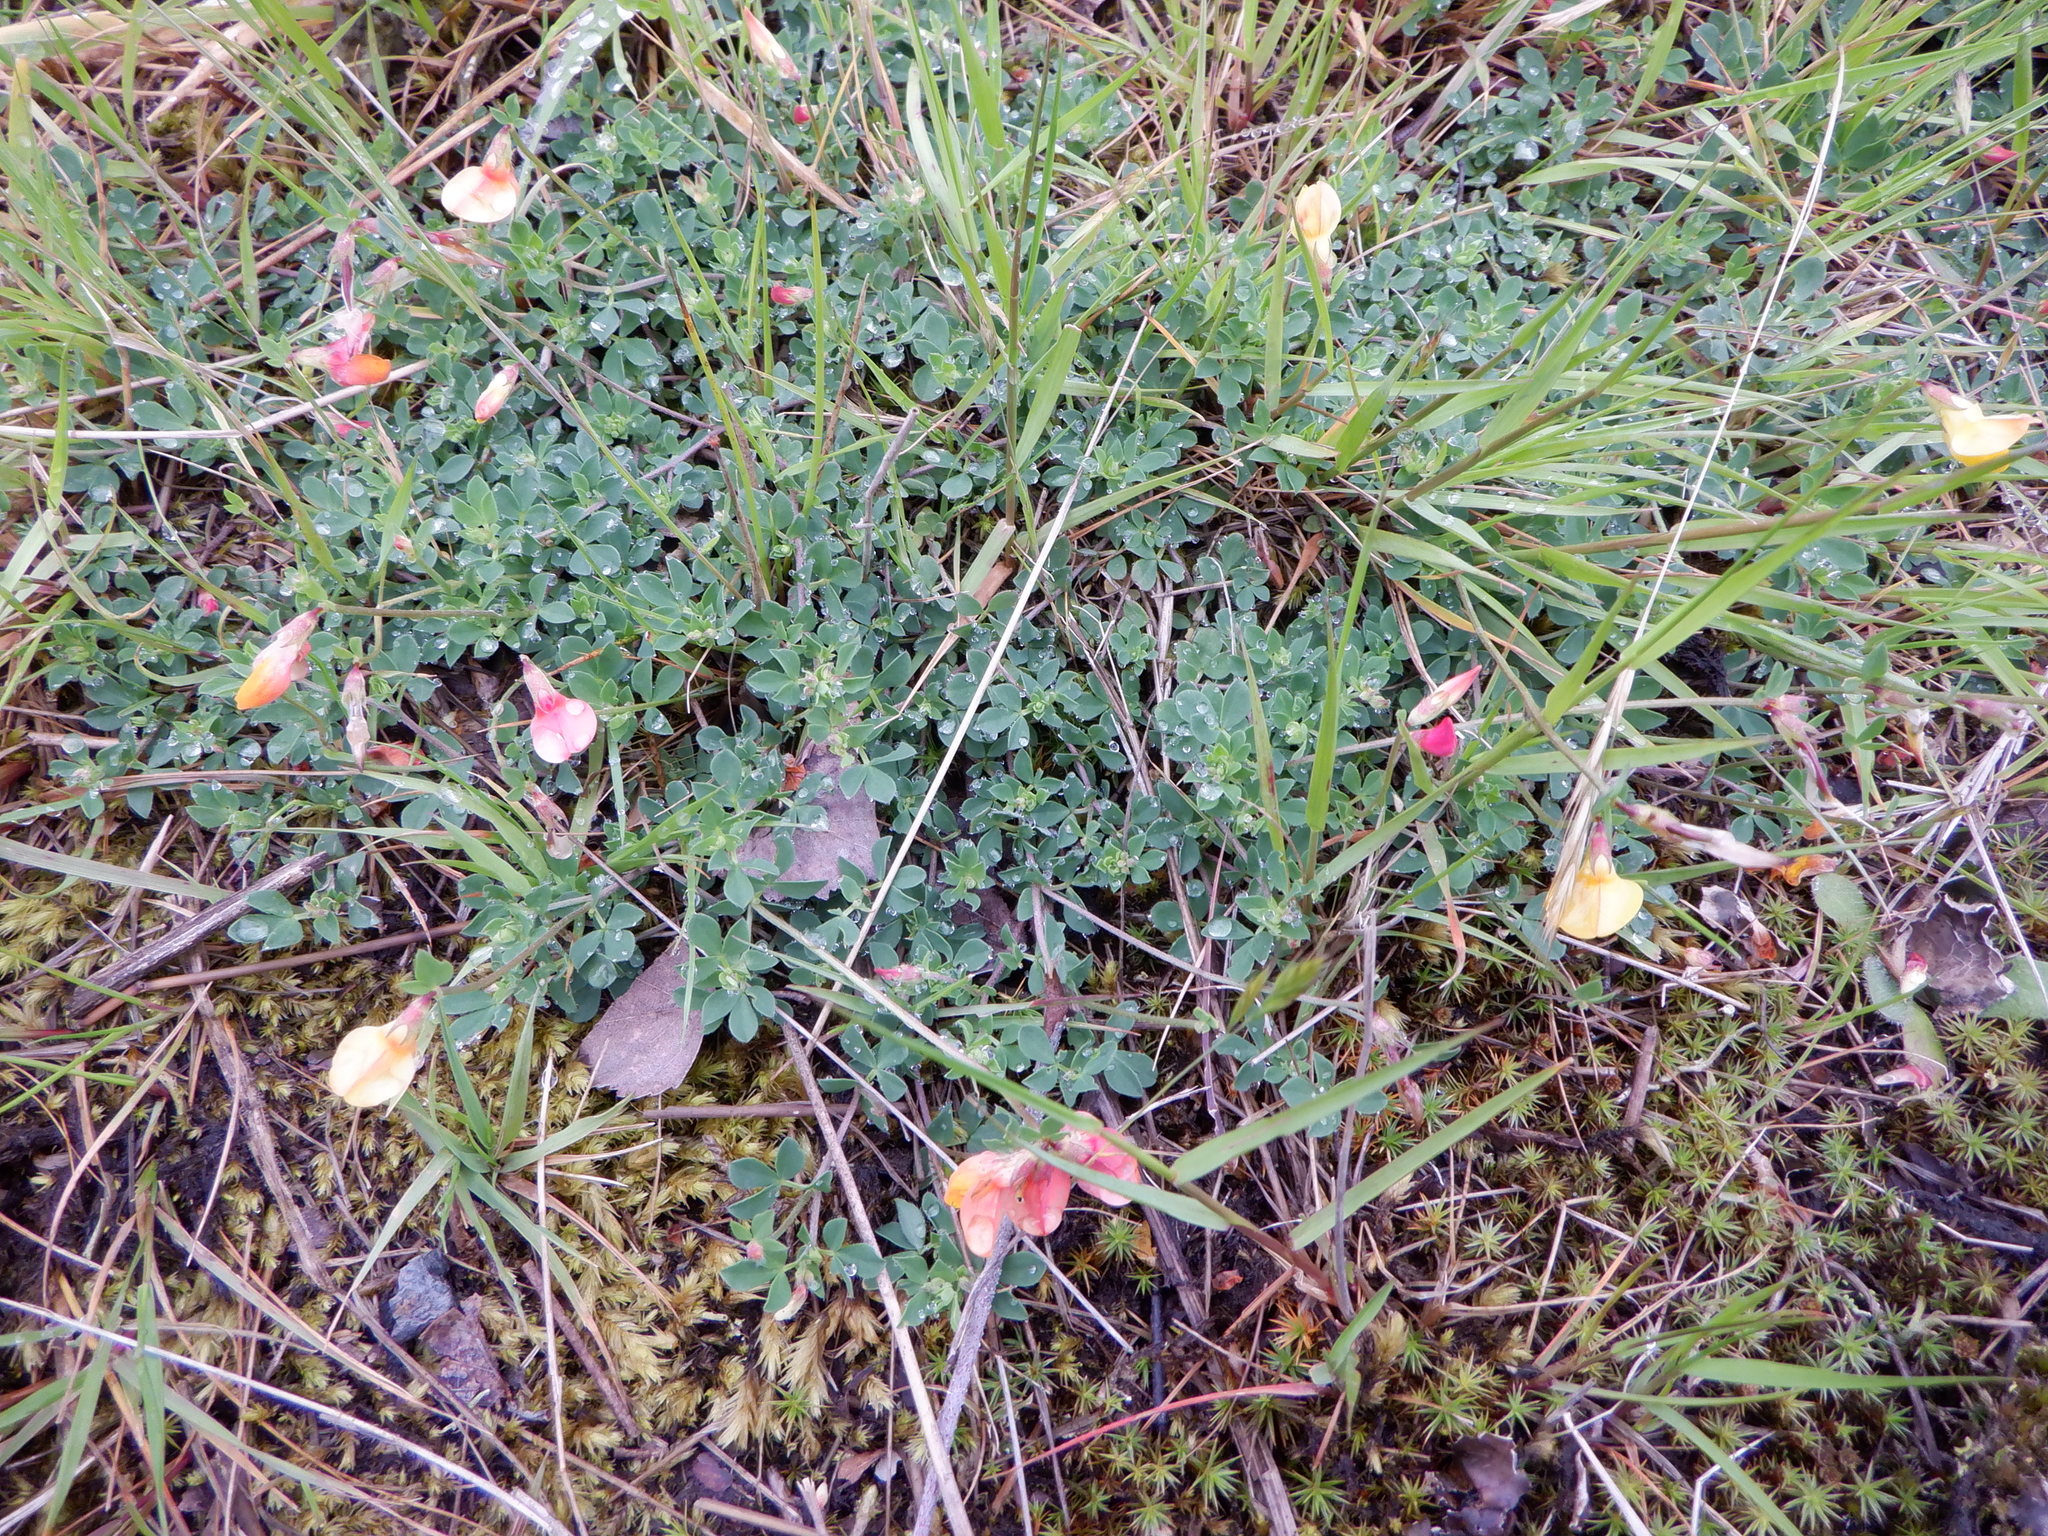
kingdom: Plantae
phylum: Tracheophyta
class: Magnoliopsida
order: Fabales
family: Fabaceae
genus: Lotus
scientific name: Lotus corniculatus
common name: Common bird's-foot-trefoil
